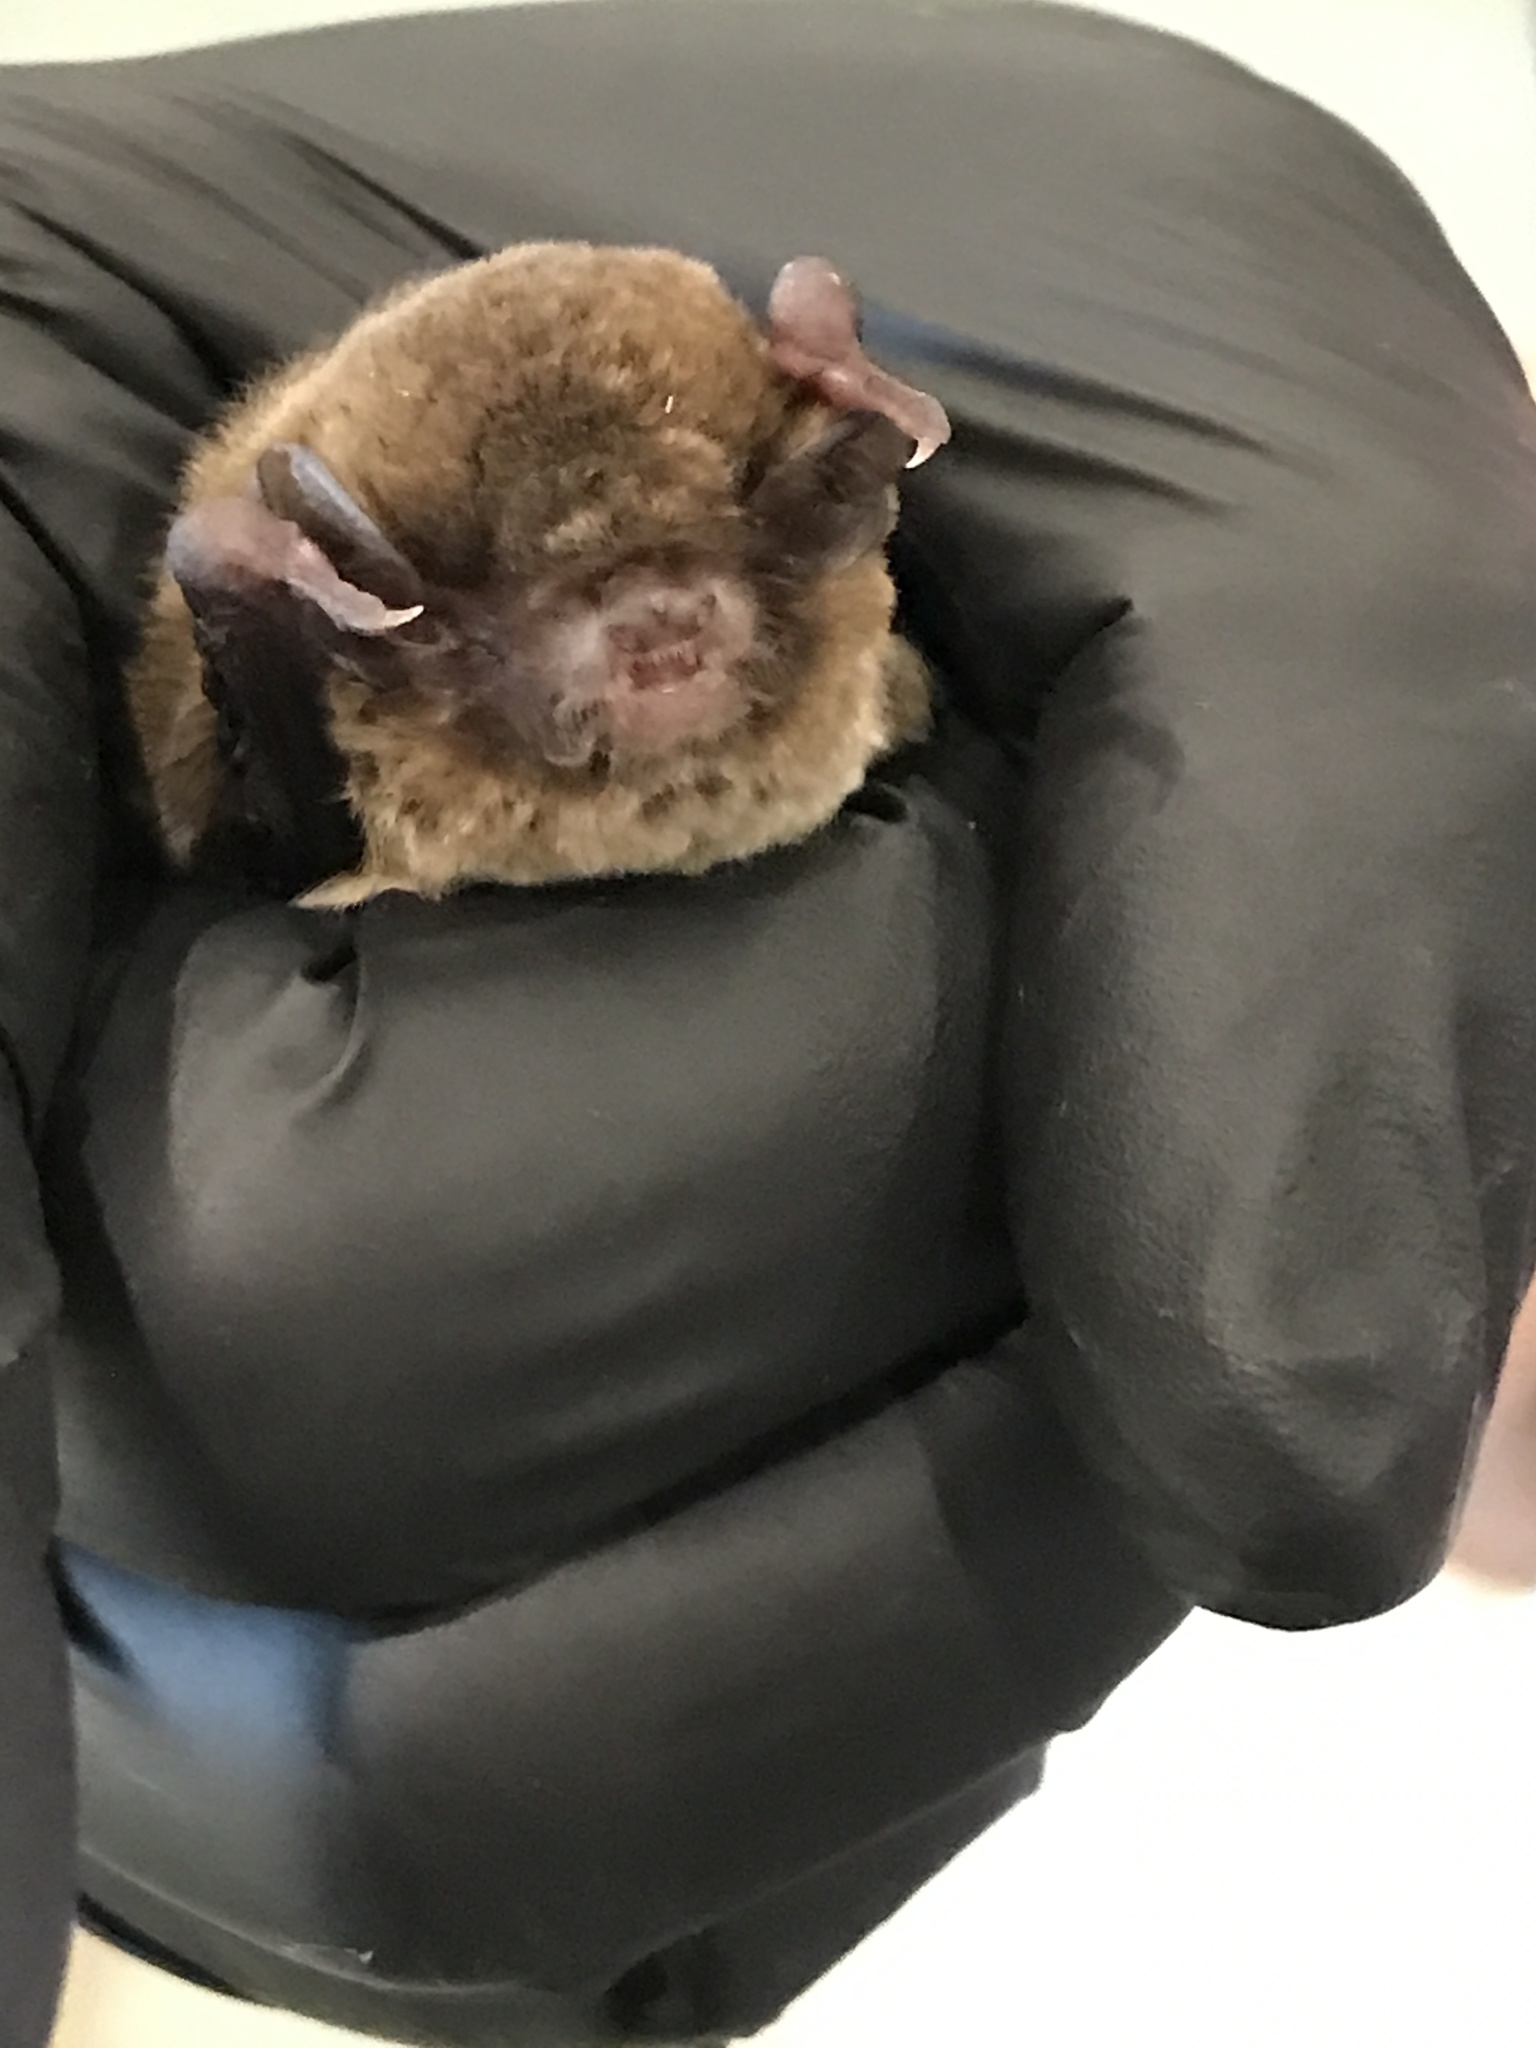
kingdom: Animalia
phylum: Chordata
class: Mammalia
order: Chiroptera
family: Vespertilionidae
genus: Chalinolobus
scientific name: Chalinolobus morio
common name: Chocolate wattled bat
